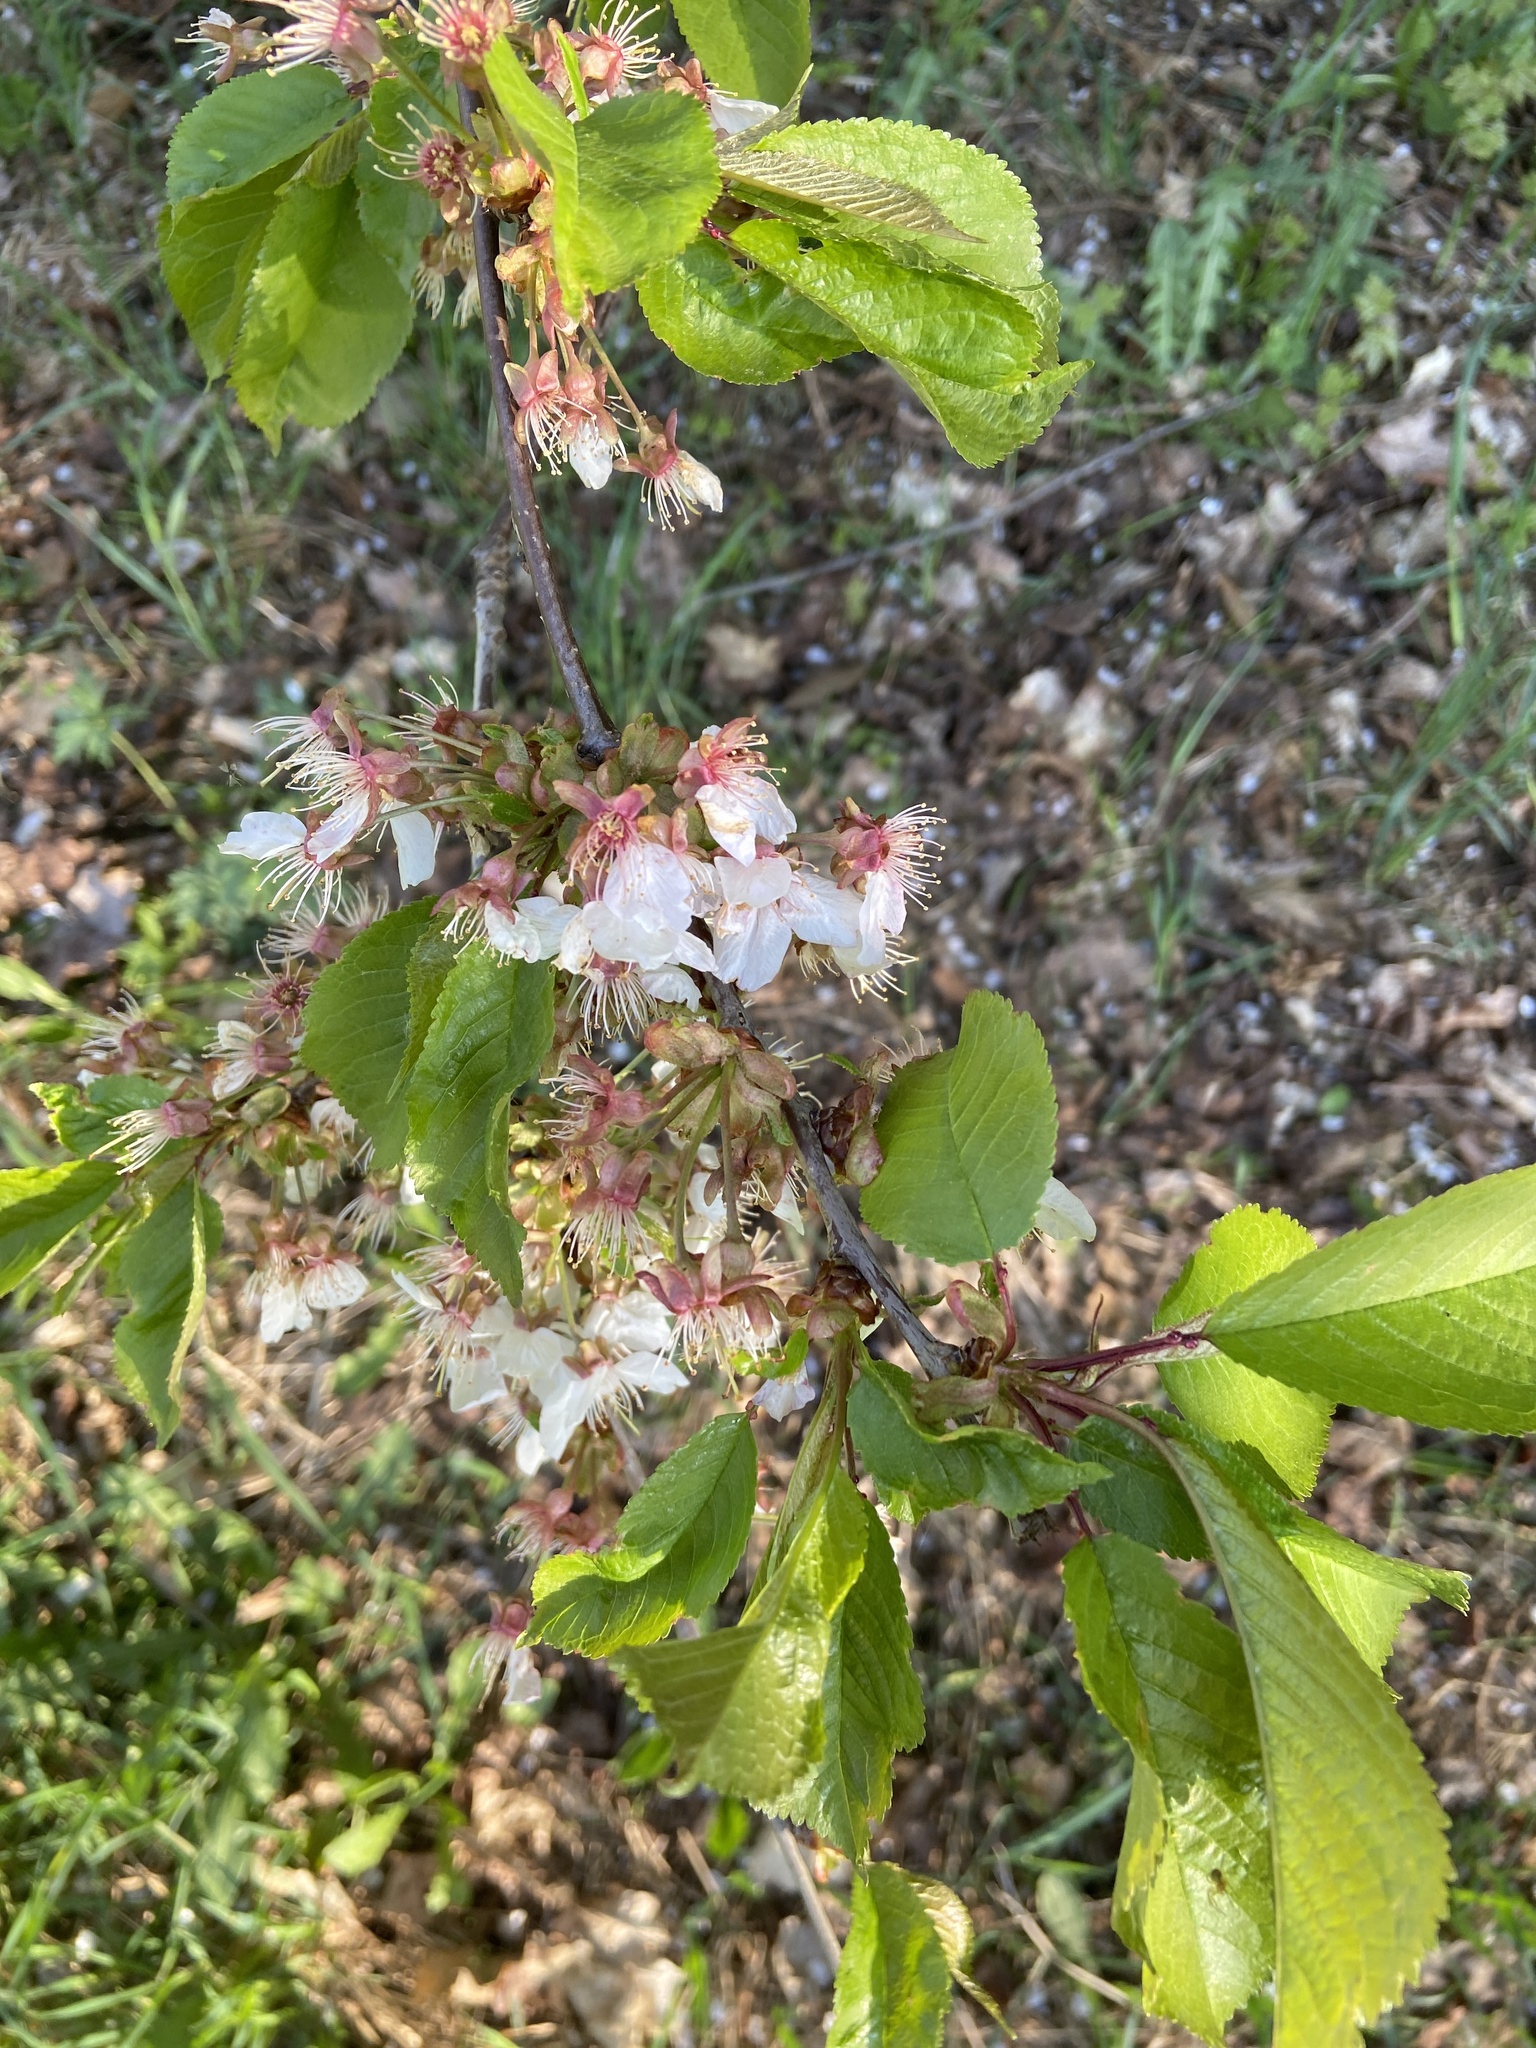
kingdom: Plantae
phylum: Tracheophyta
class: Magnoliopsida
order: Rosales
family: Rosaceae
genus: Prunus
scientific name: Prunus avium
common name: Sweet cherry
